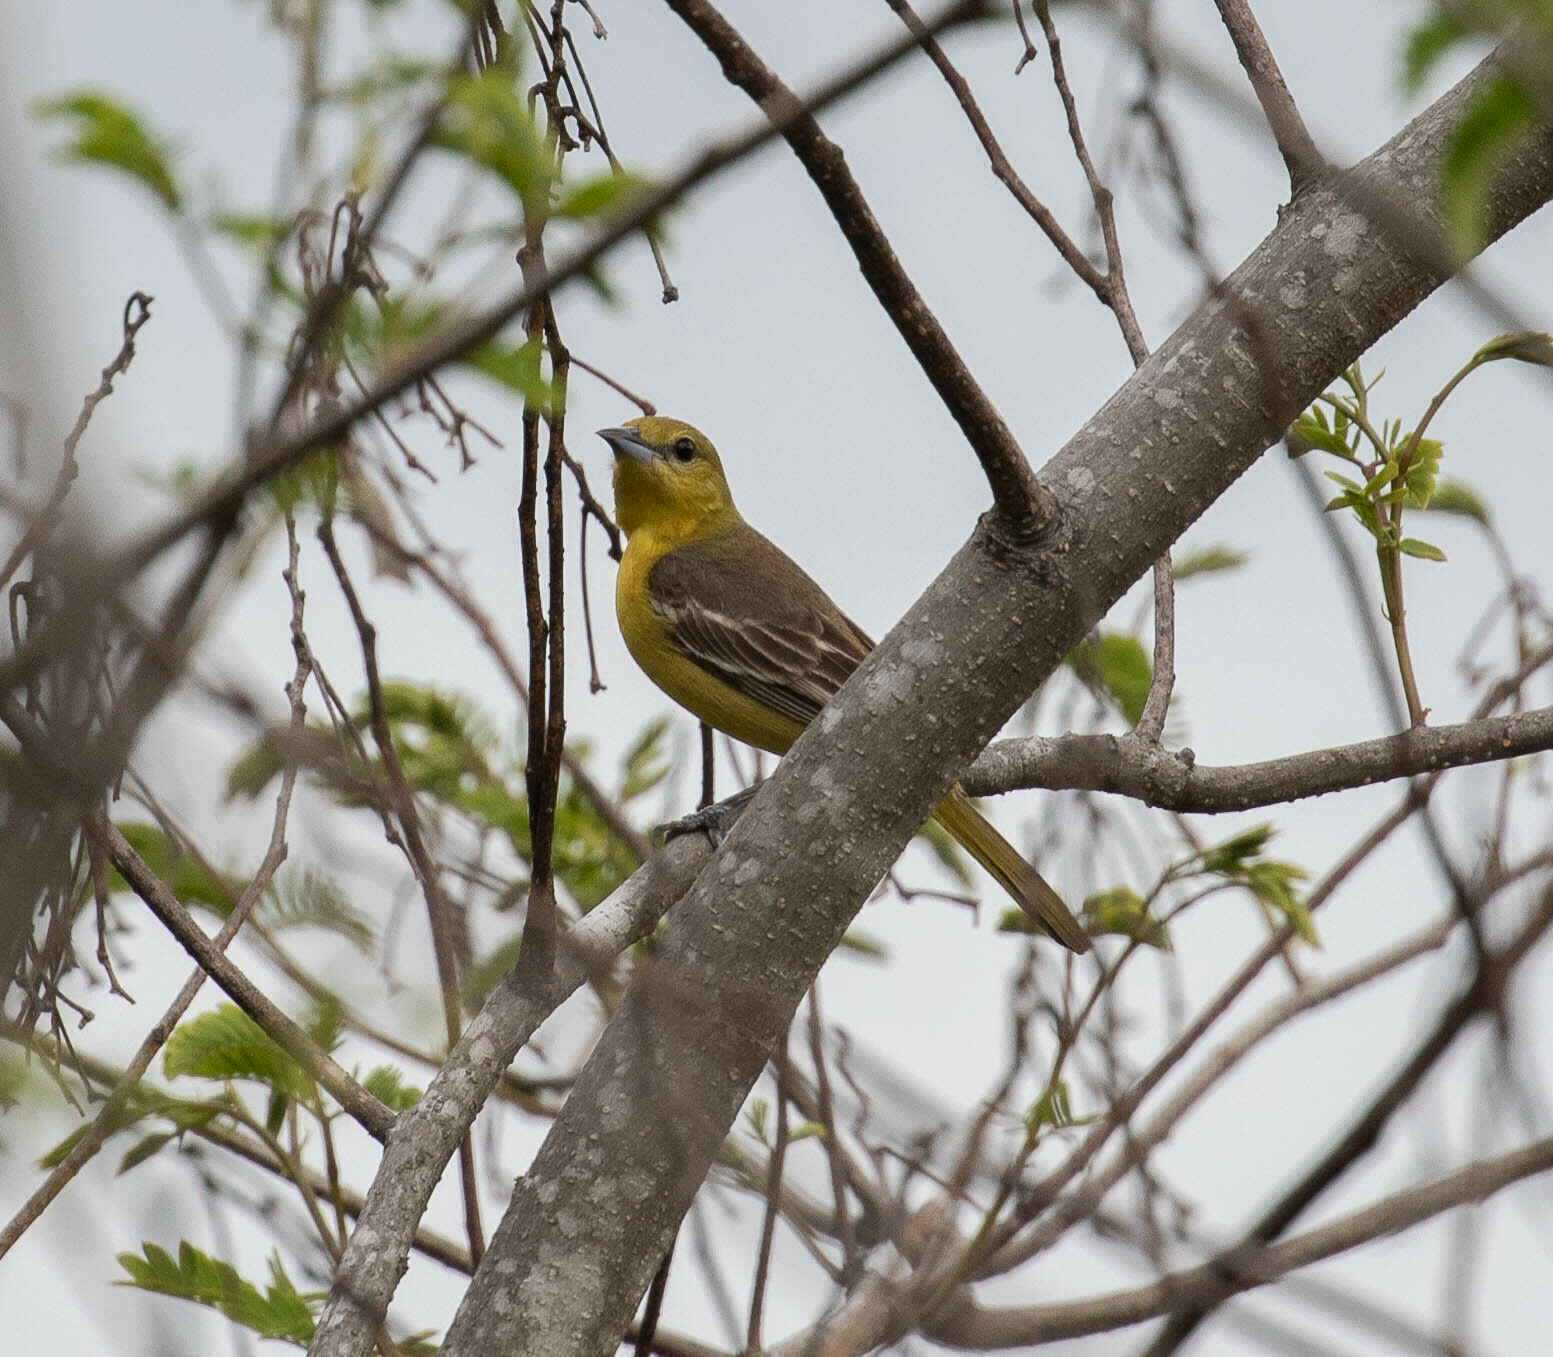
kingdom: Animalia
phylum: Chordata
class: Aves
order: Passeriformes
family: Icteridae
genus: Icterus
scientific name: Icterus spurius
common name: Orchard oriole
